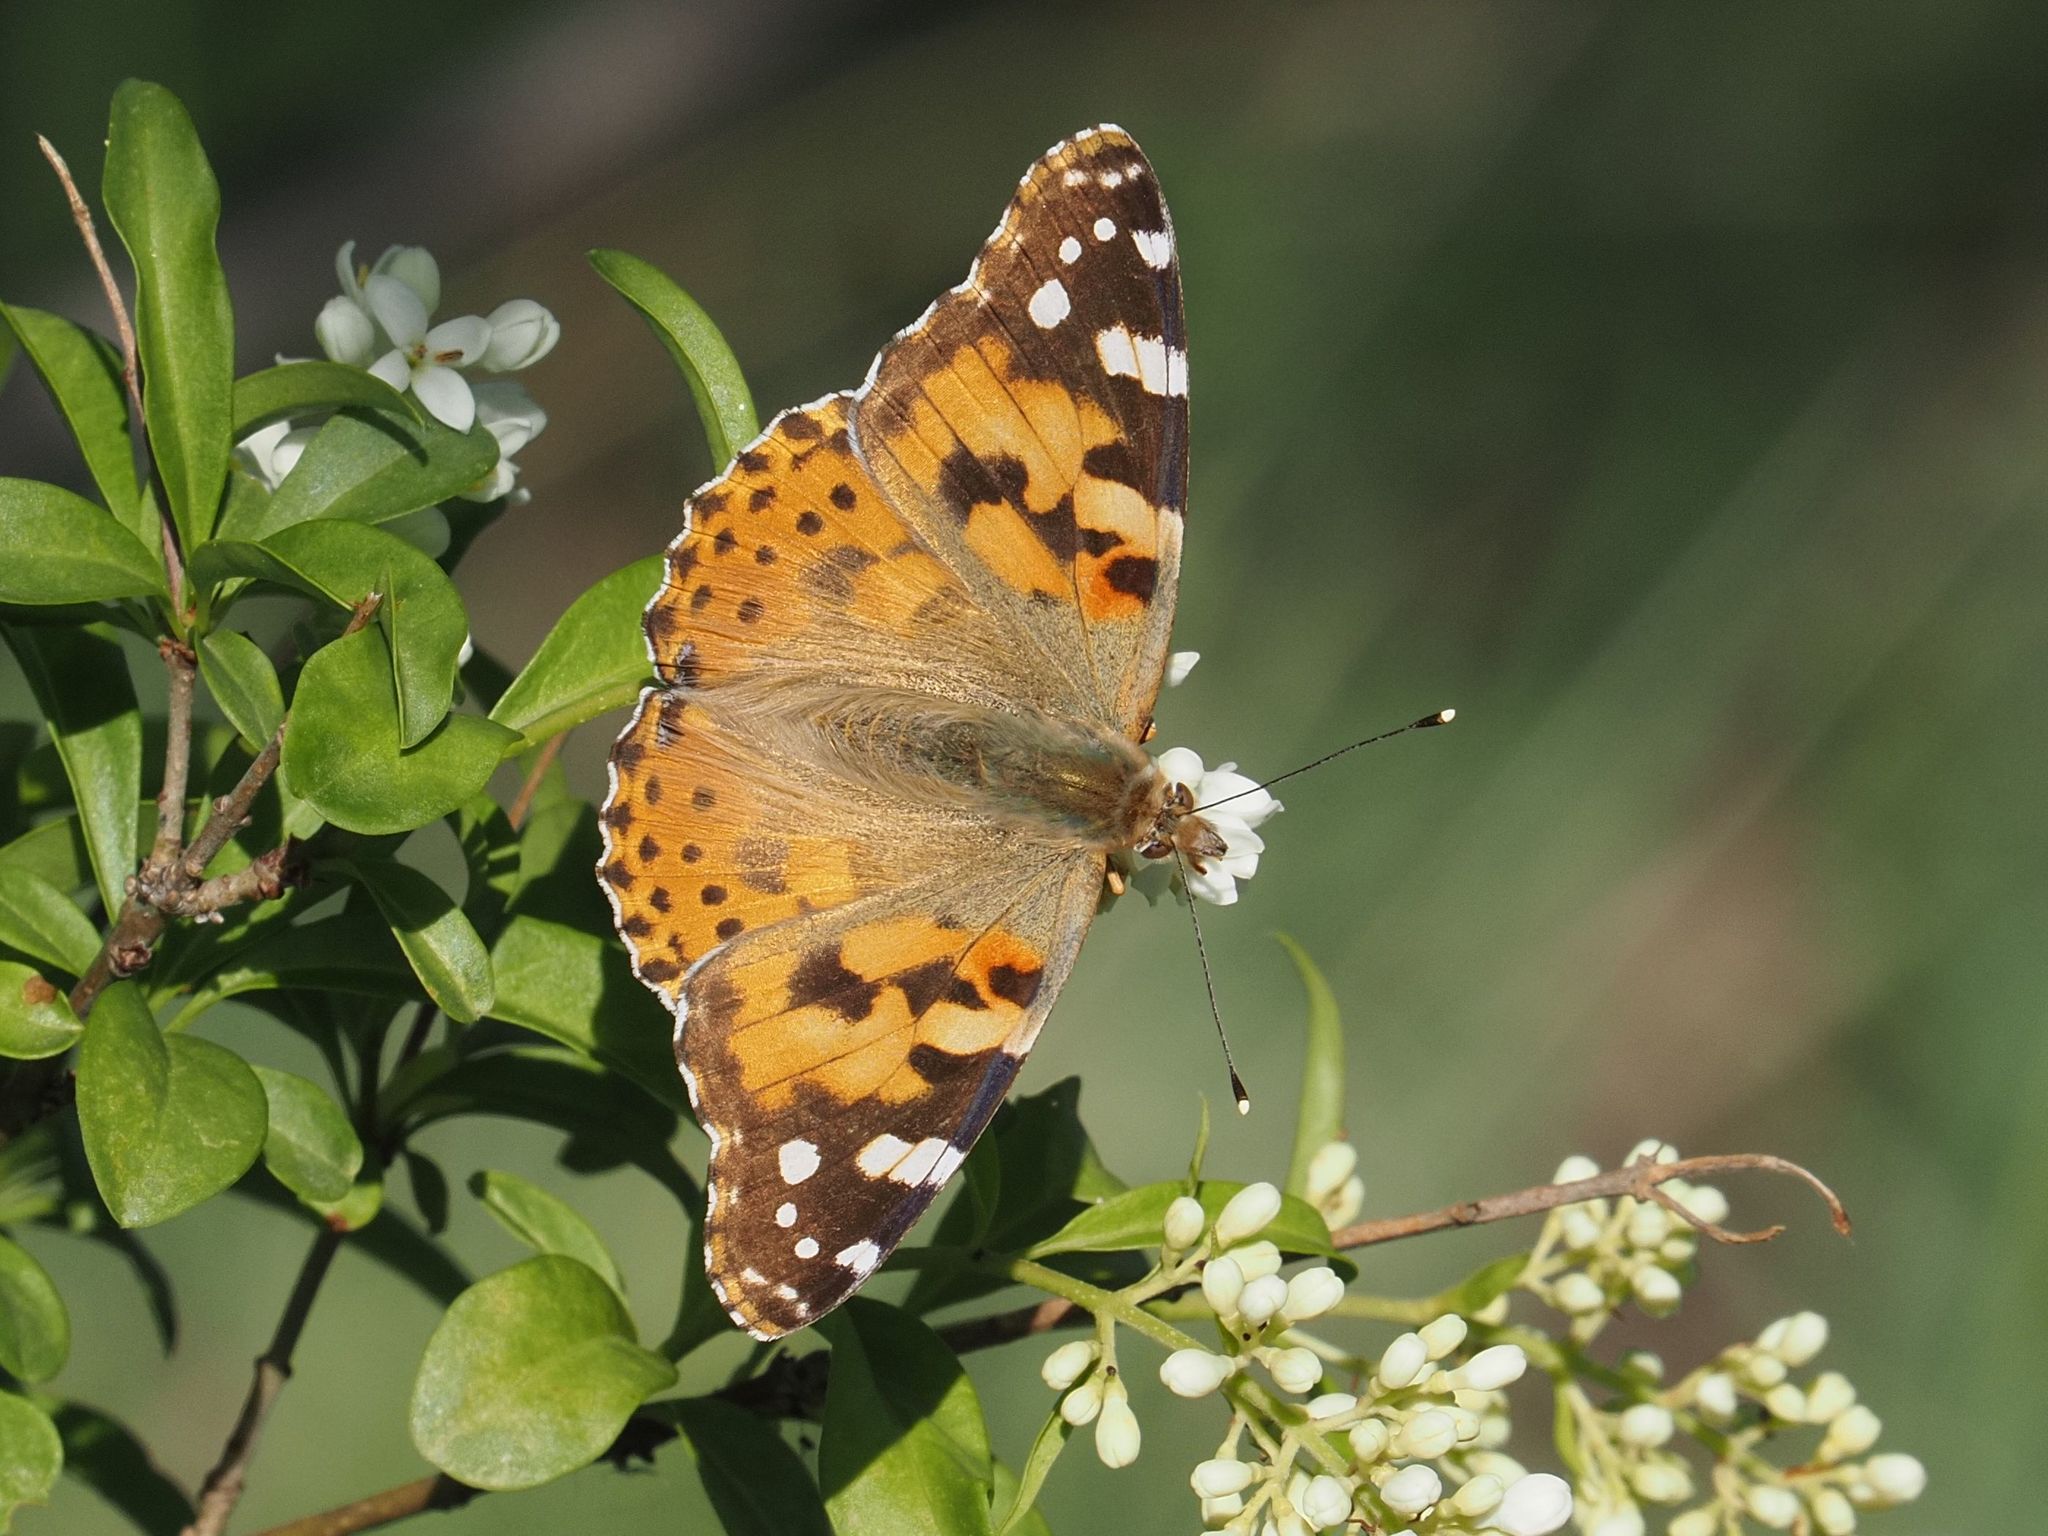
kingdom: Animalia
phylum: Arthropoda
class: Insecta
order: Lepidoptera
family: Nymphalidae
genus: Vanessa
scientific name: Vanessa cardui
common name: Painted lady
